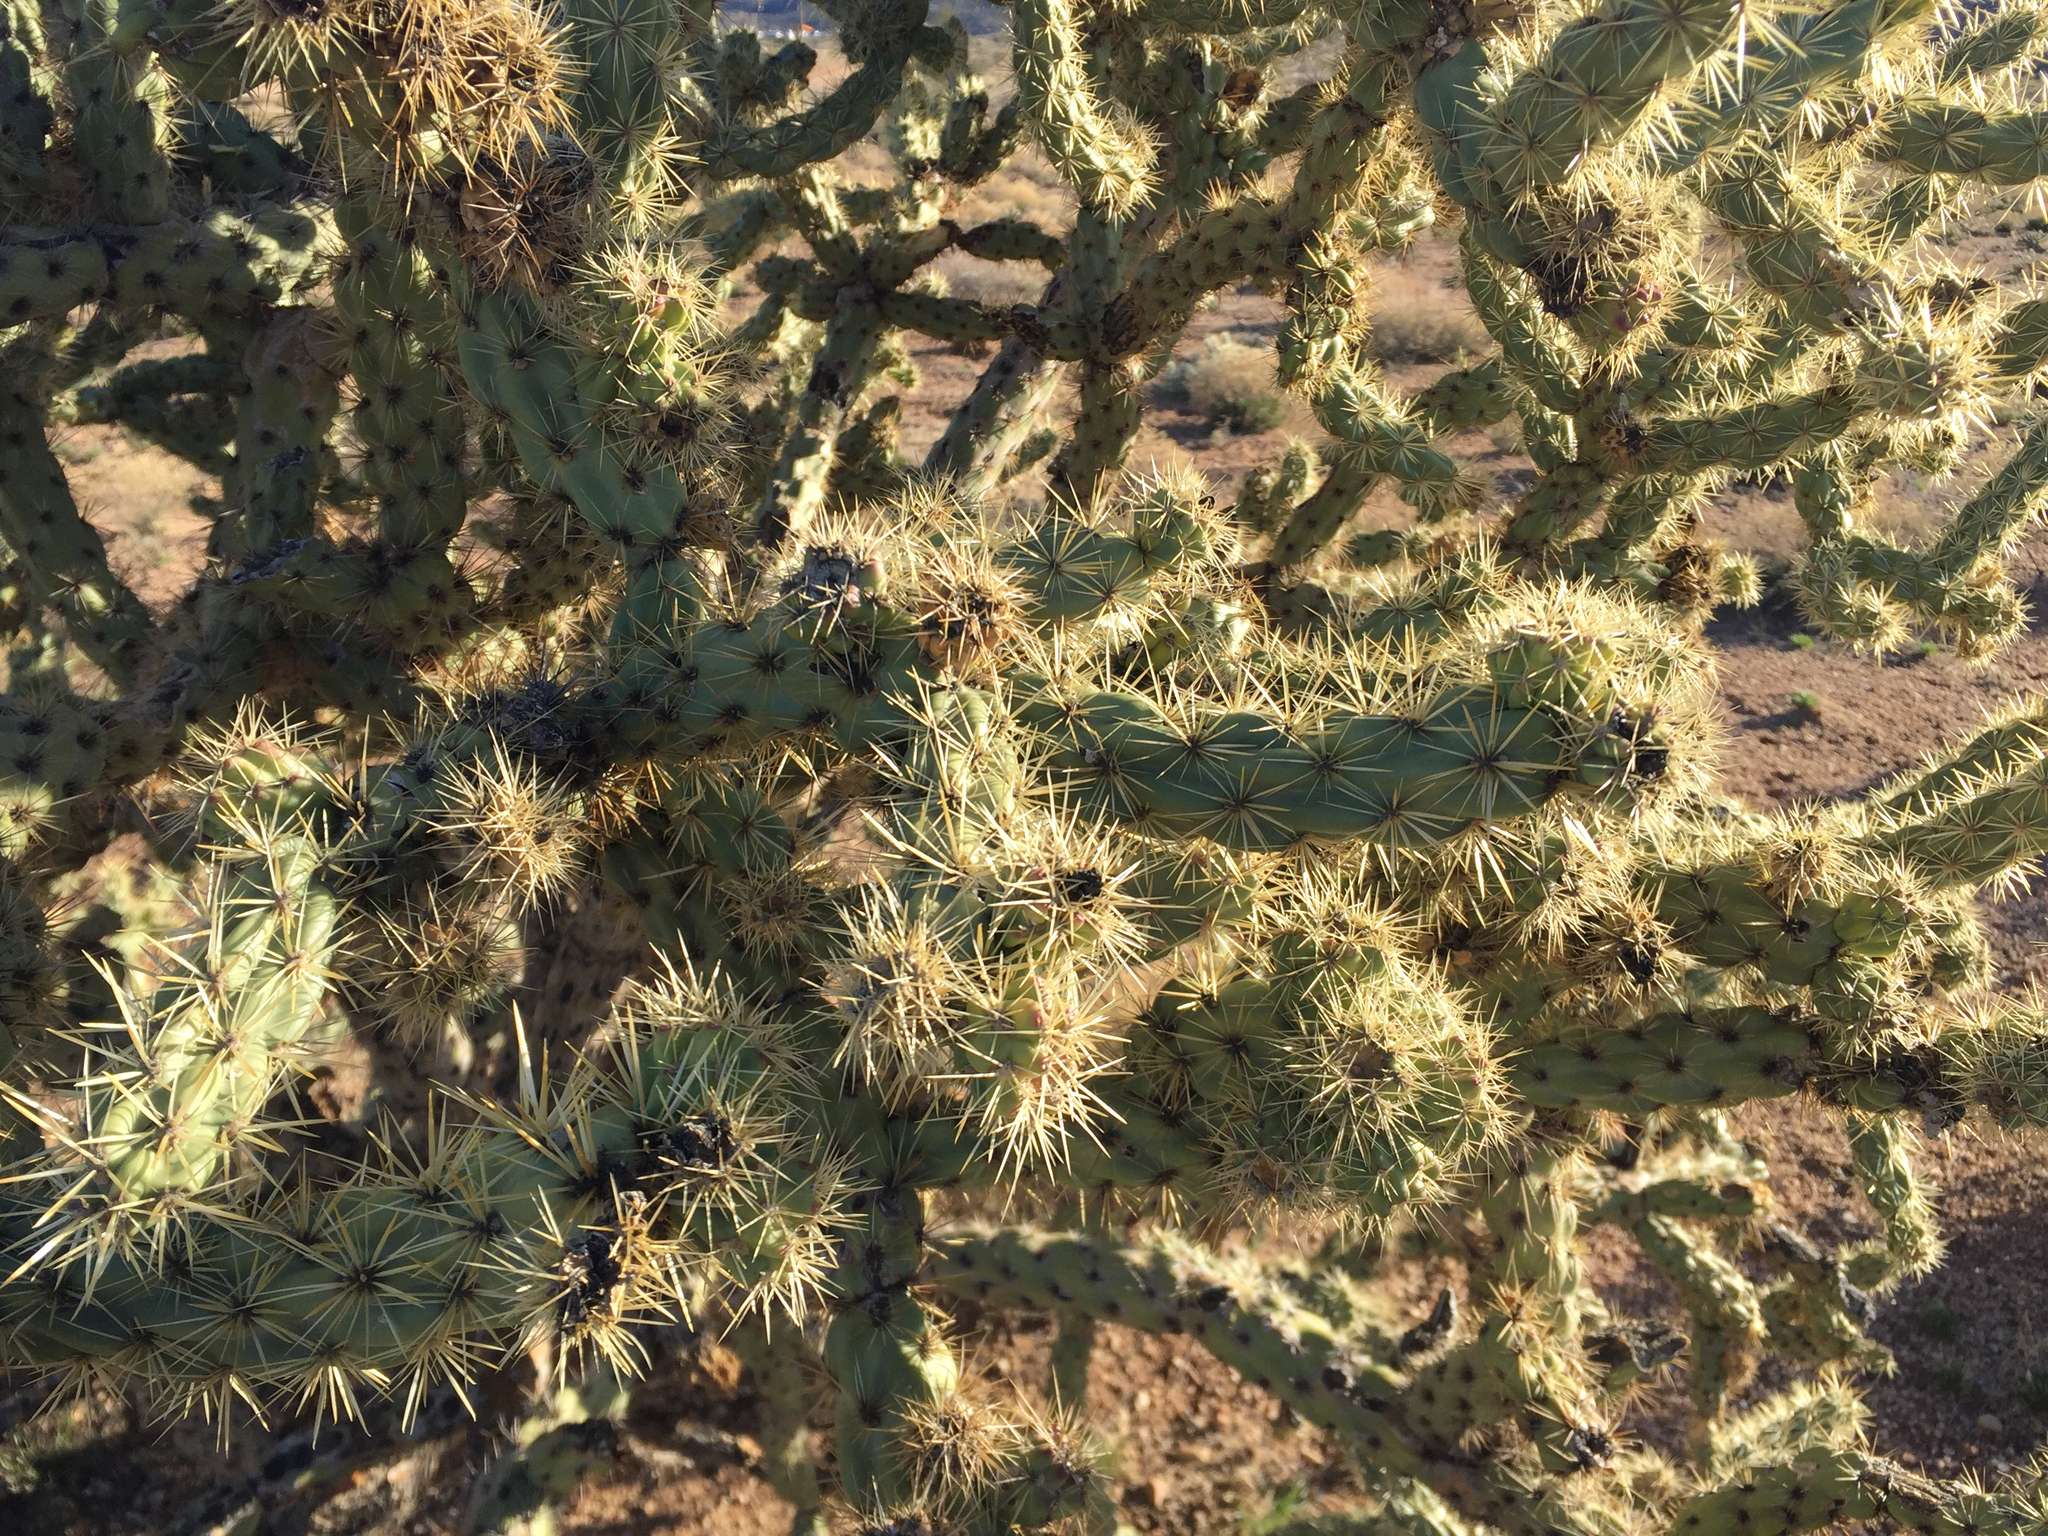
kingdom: Plantae
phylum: Tracheophyta
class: Magnoliopsida
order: Caryophyllales
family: Cactaceae
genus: Cylindropuntia
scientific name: Cylindropuntia acanthocarpa
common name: Buckhorn cholla
